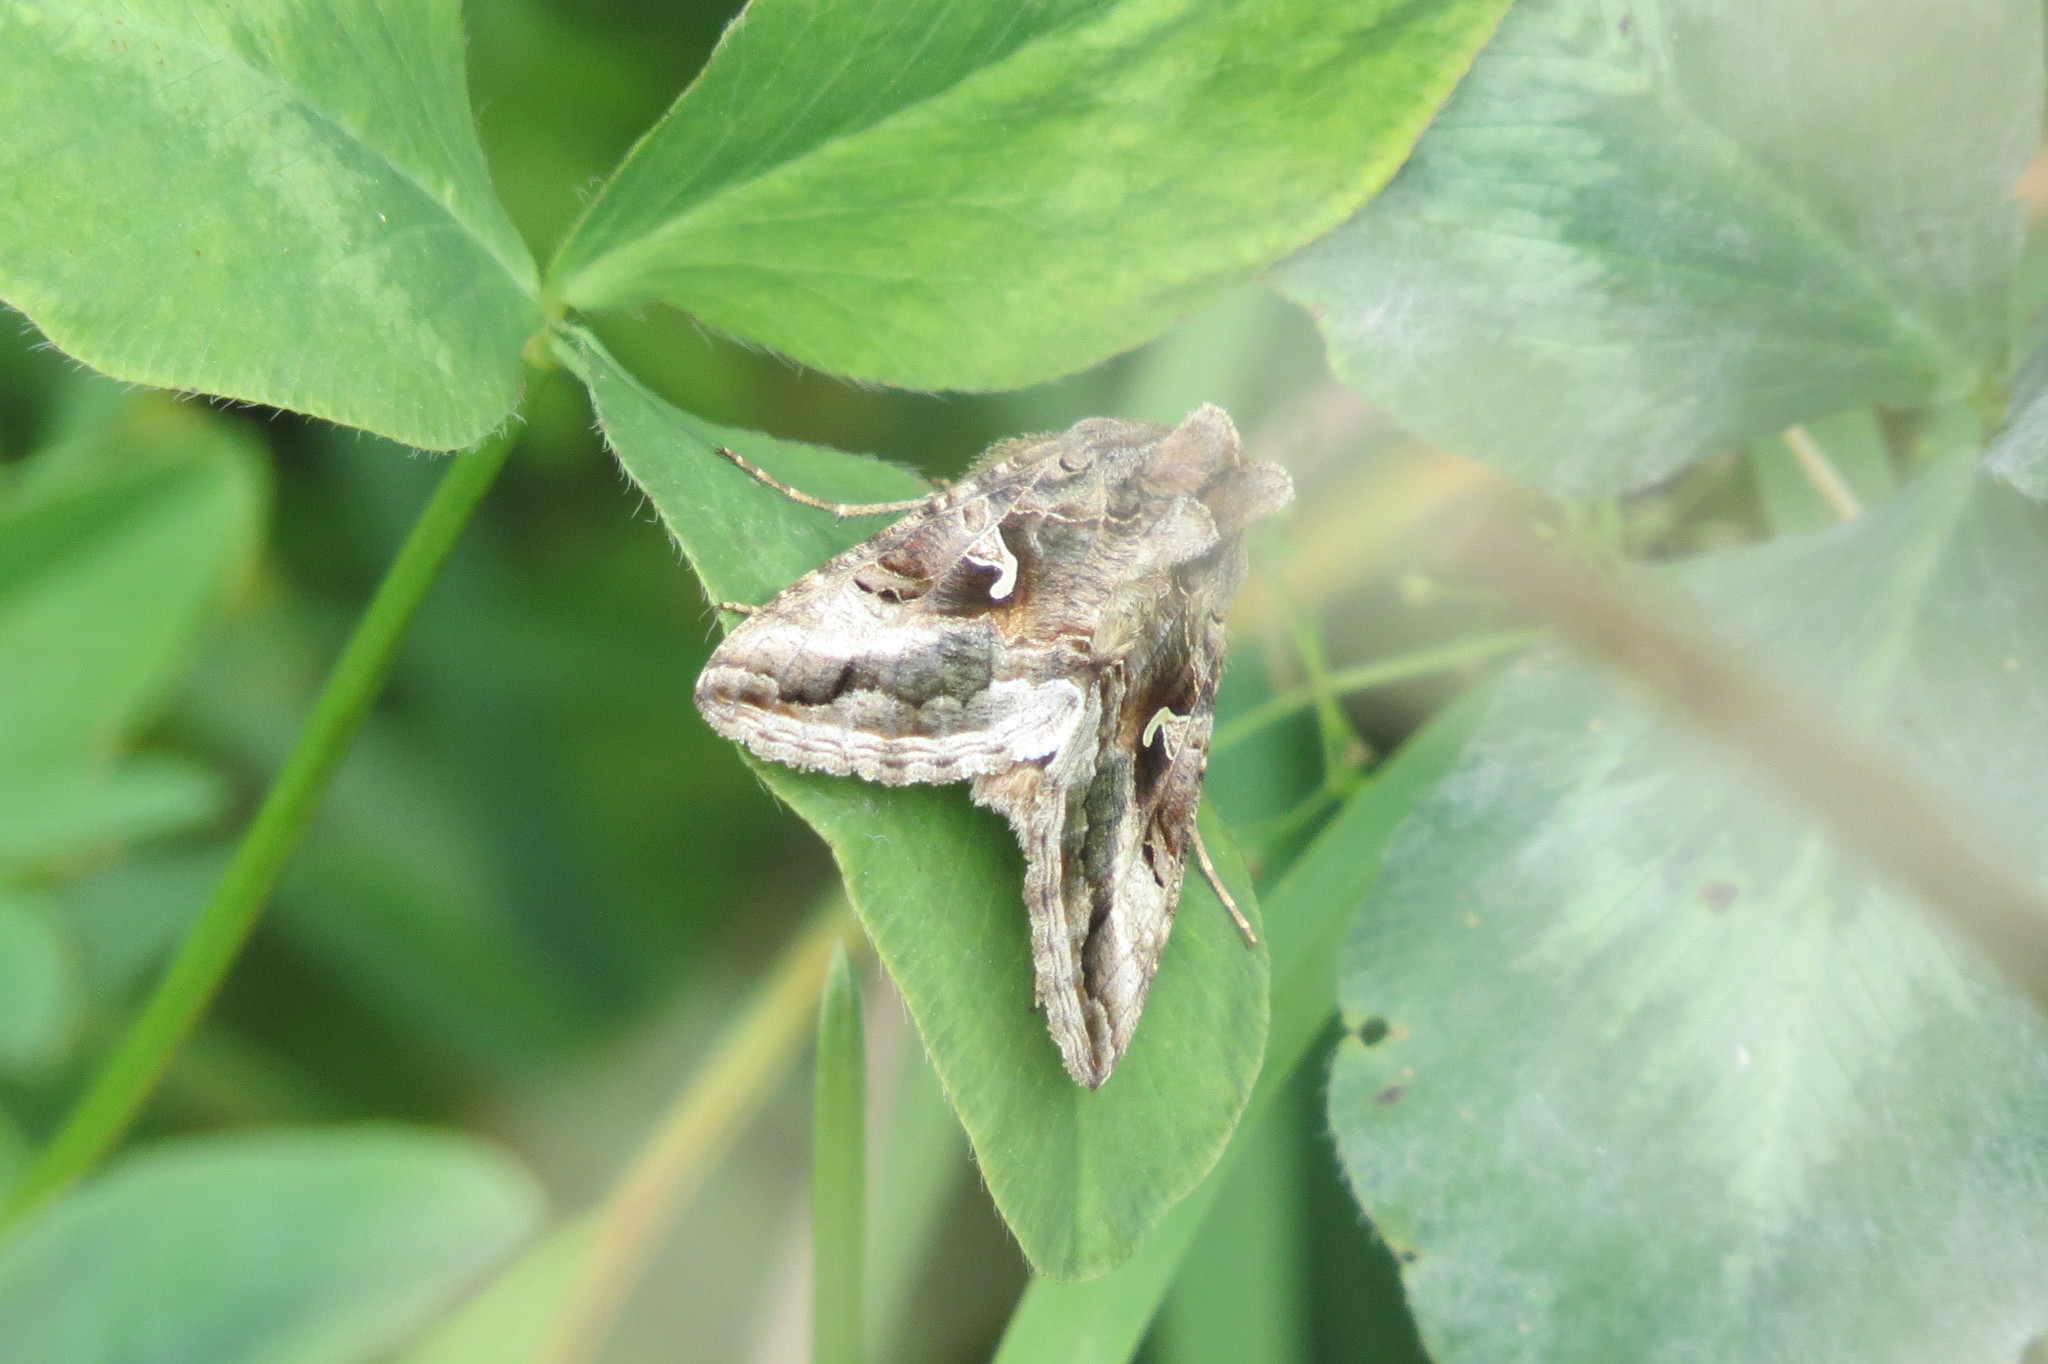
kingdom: Animalia
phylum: Arthropoda
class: Insecta
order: Lepidoptera
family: Noctuidae
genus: Autographa
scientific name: Autographa gamma
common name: Silver y
